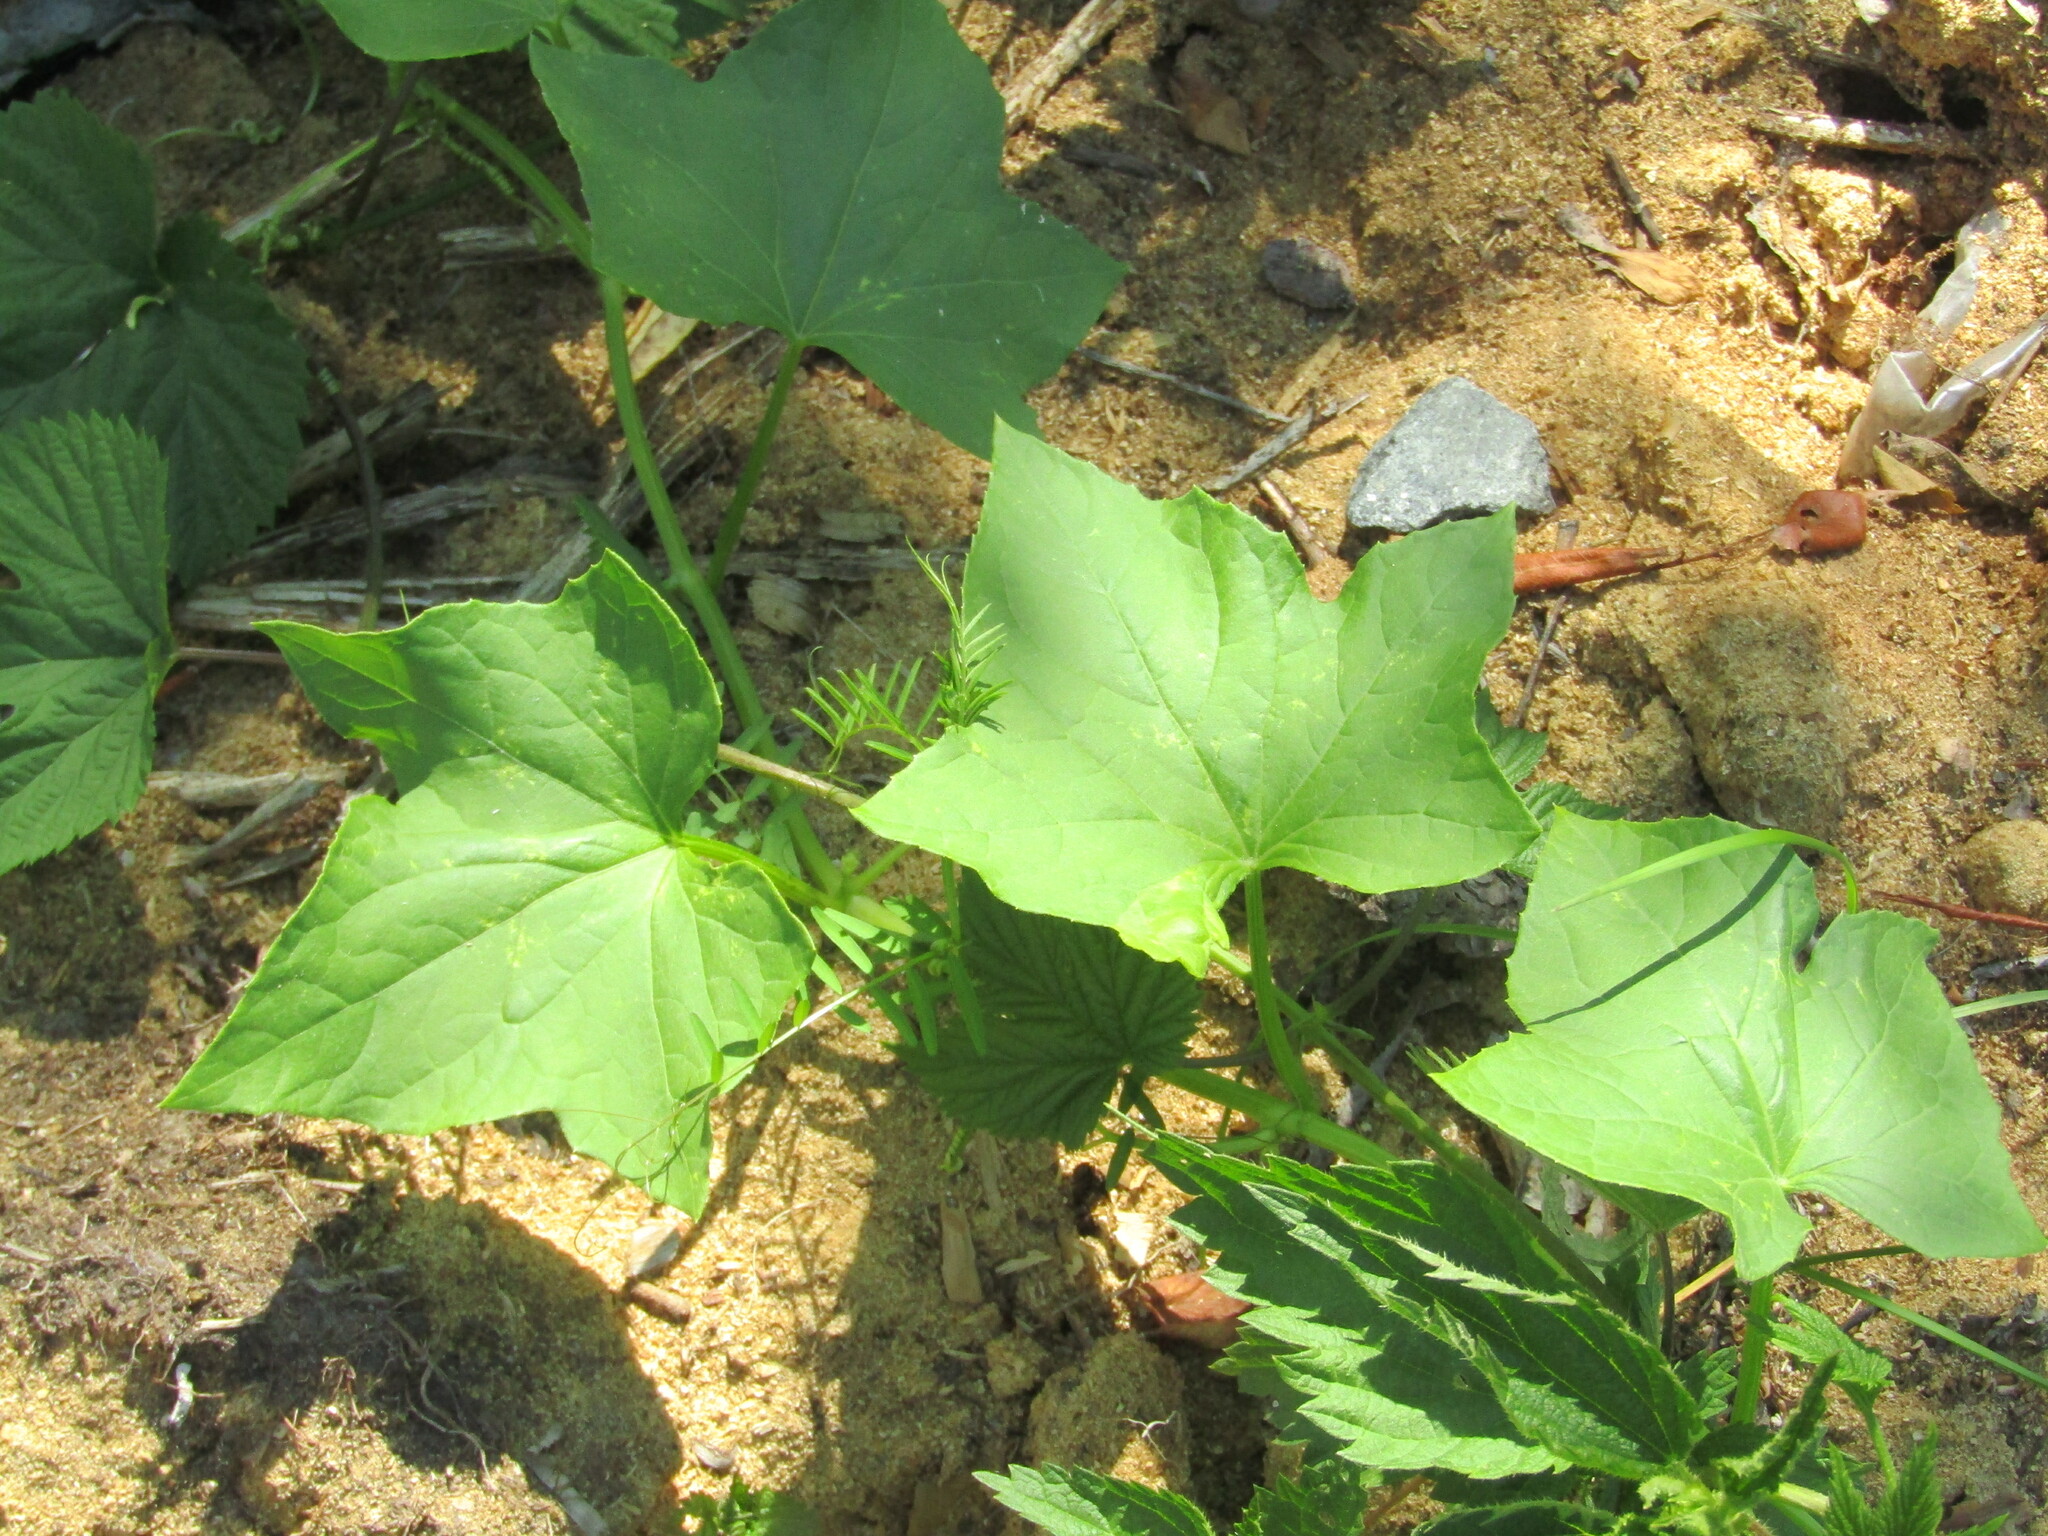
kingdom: Plantae
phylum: Tracheophyta
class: Magnoliopsida
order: Cucurbitales
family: Cucurbitaceae
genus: Echinocystis
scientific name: Echinocystis lobata
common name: Wild cucumber
